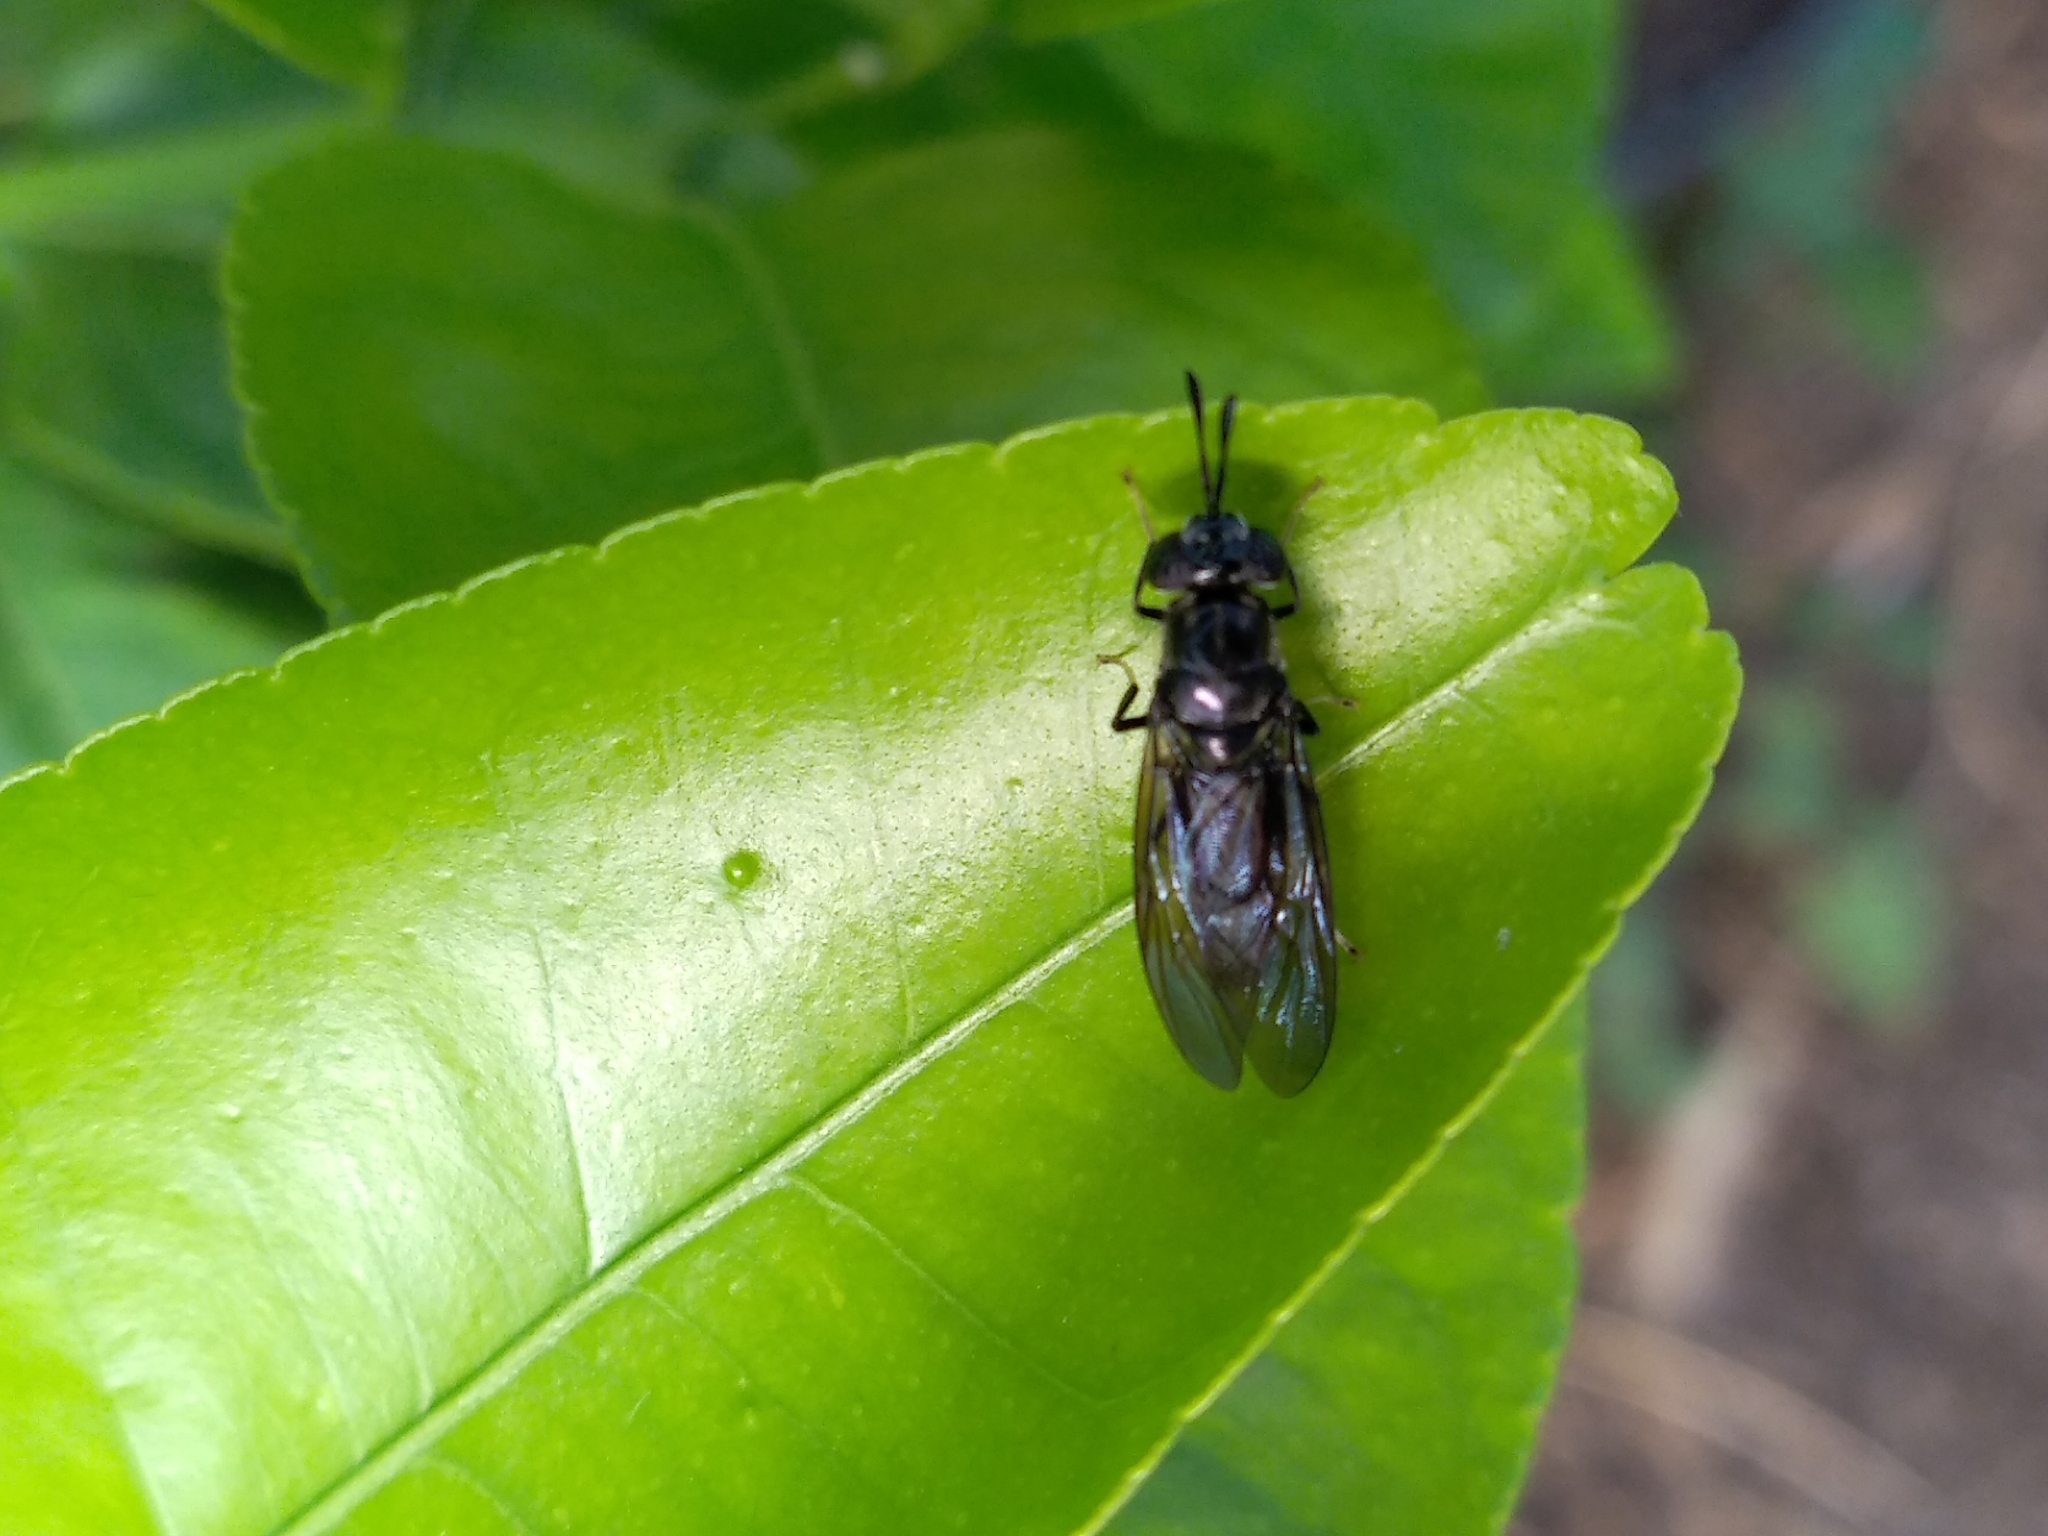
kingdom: Animalia
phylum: Arthropoda
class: Insecta
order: Diptera
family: Stratiomyidae
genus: Hermetia
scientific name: Hermetia illucens
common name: Black soldier fly
